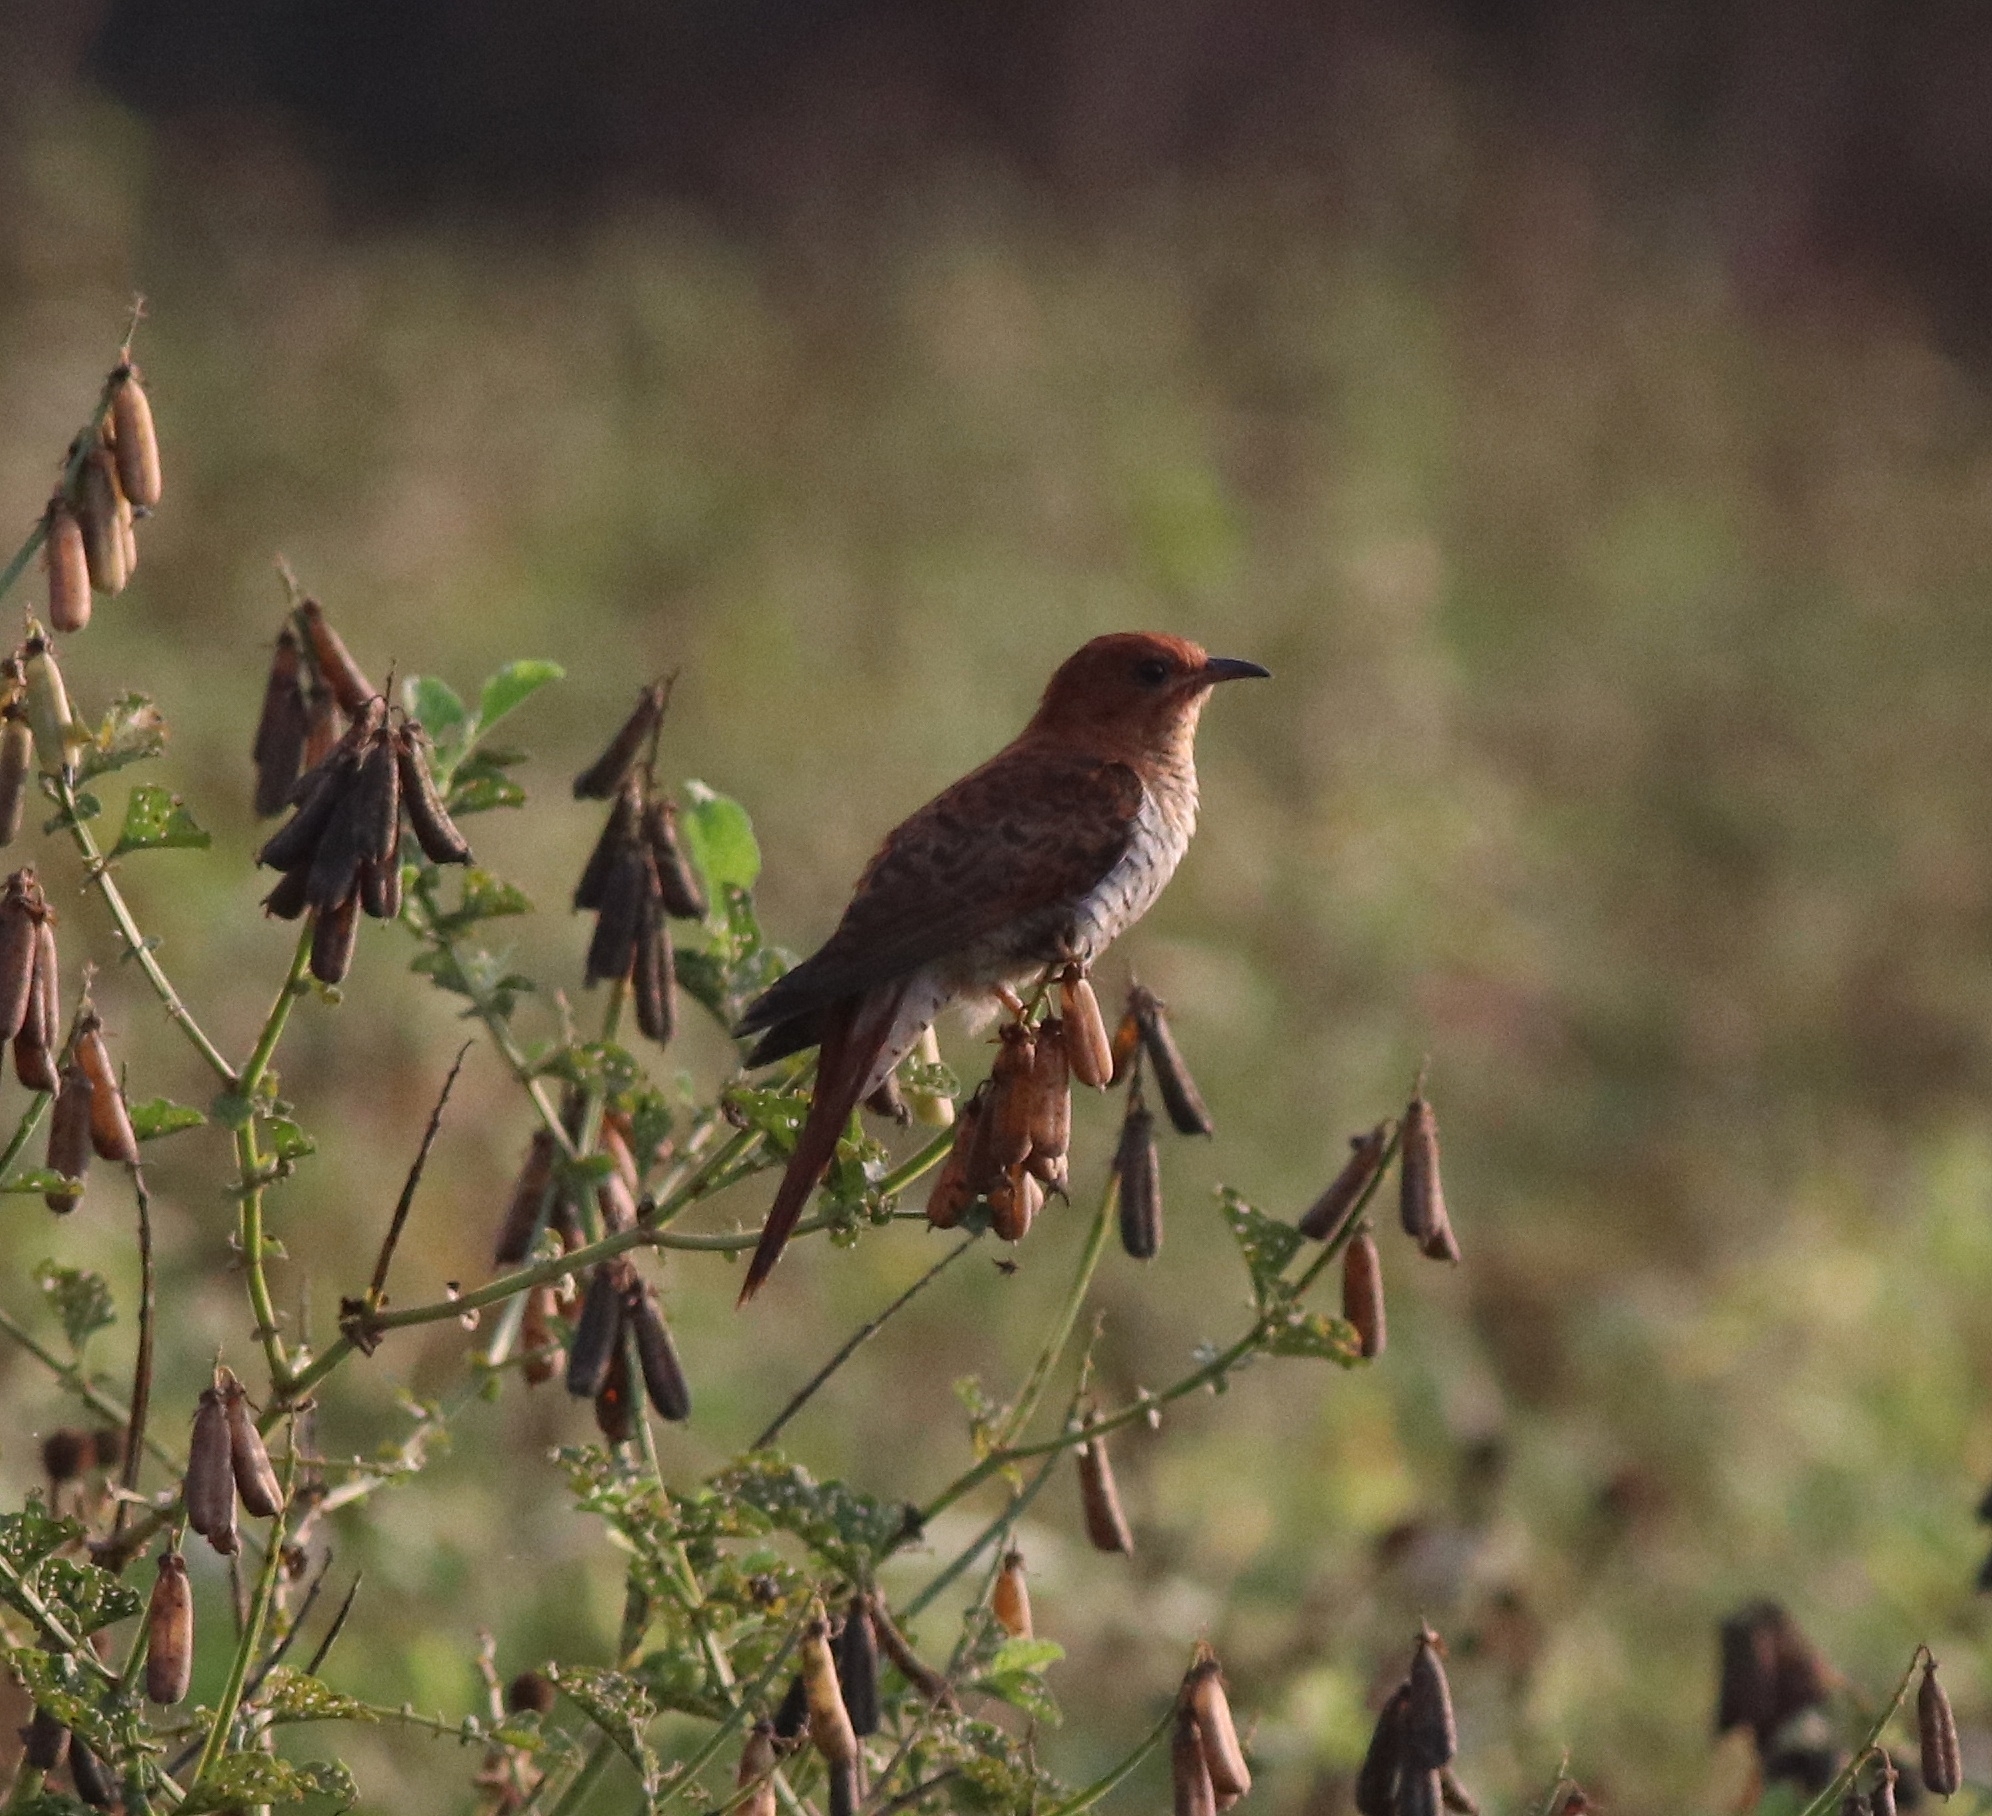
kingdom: Animalia
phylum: Chordata
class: Aves
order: Cuculiformes
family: Cuculidae
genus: Cacomantis
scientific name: Cacomantis passerinus
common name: Grey-bellied cuckoo
